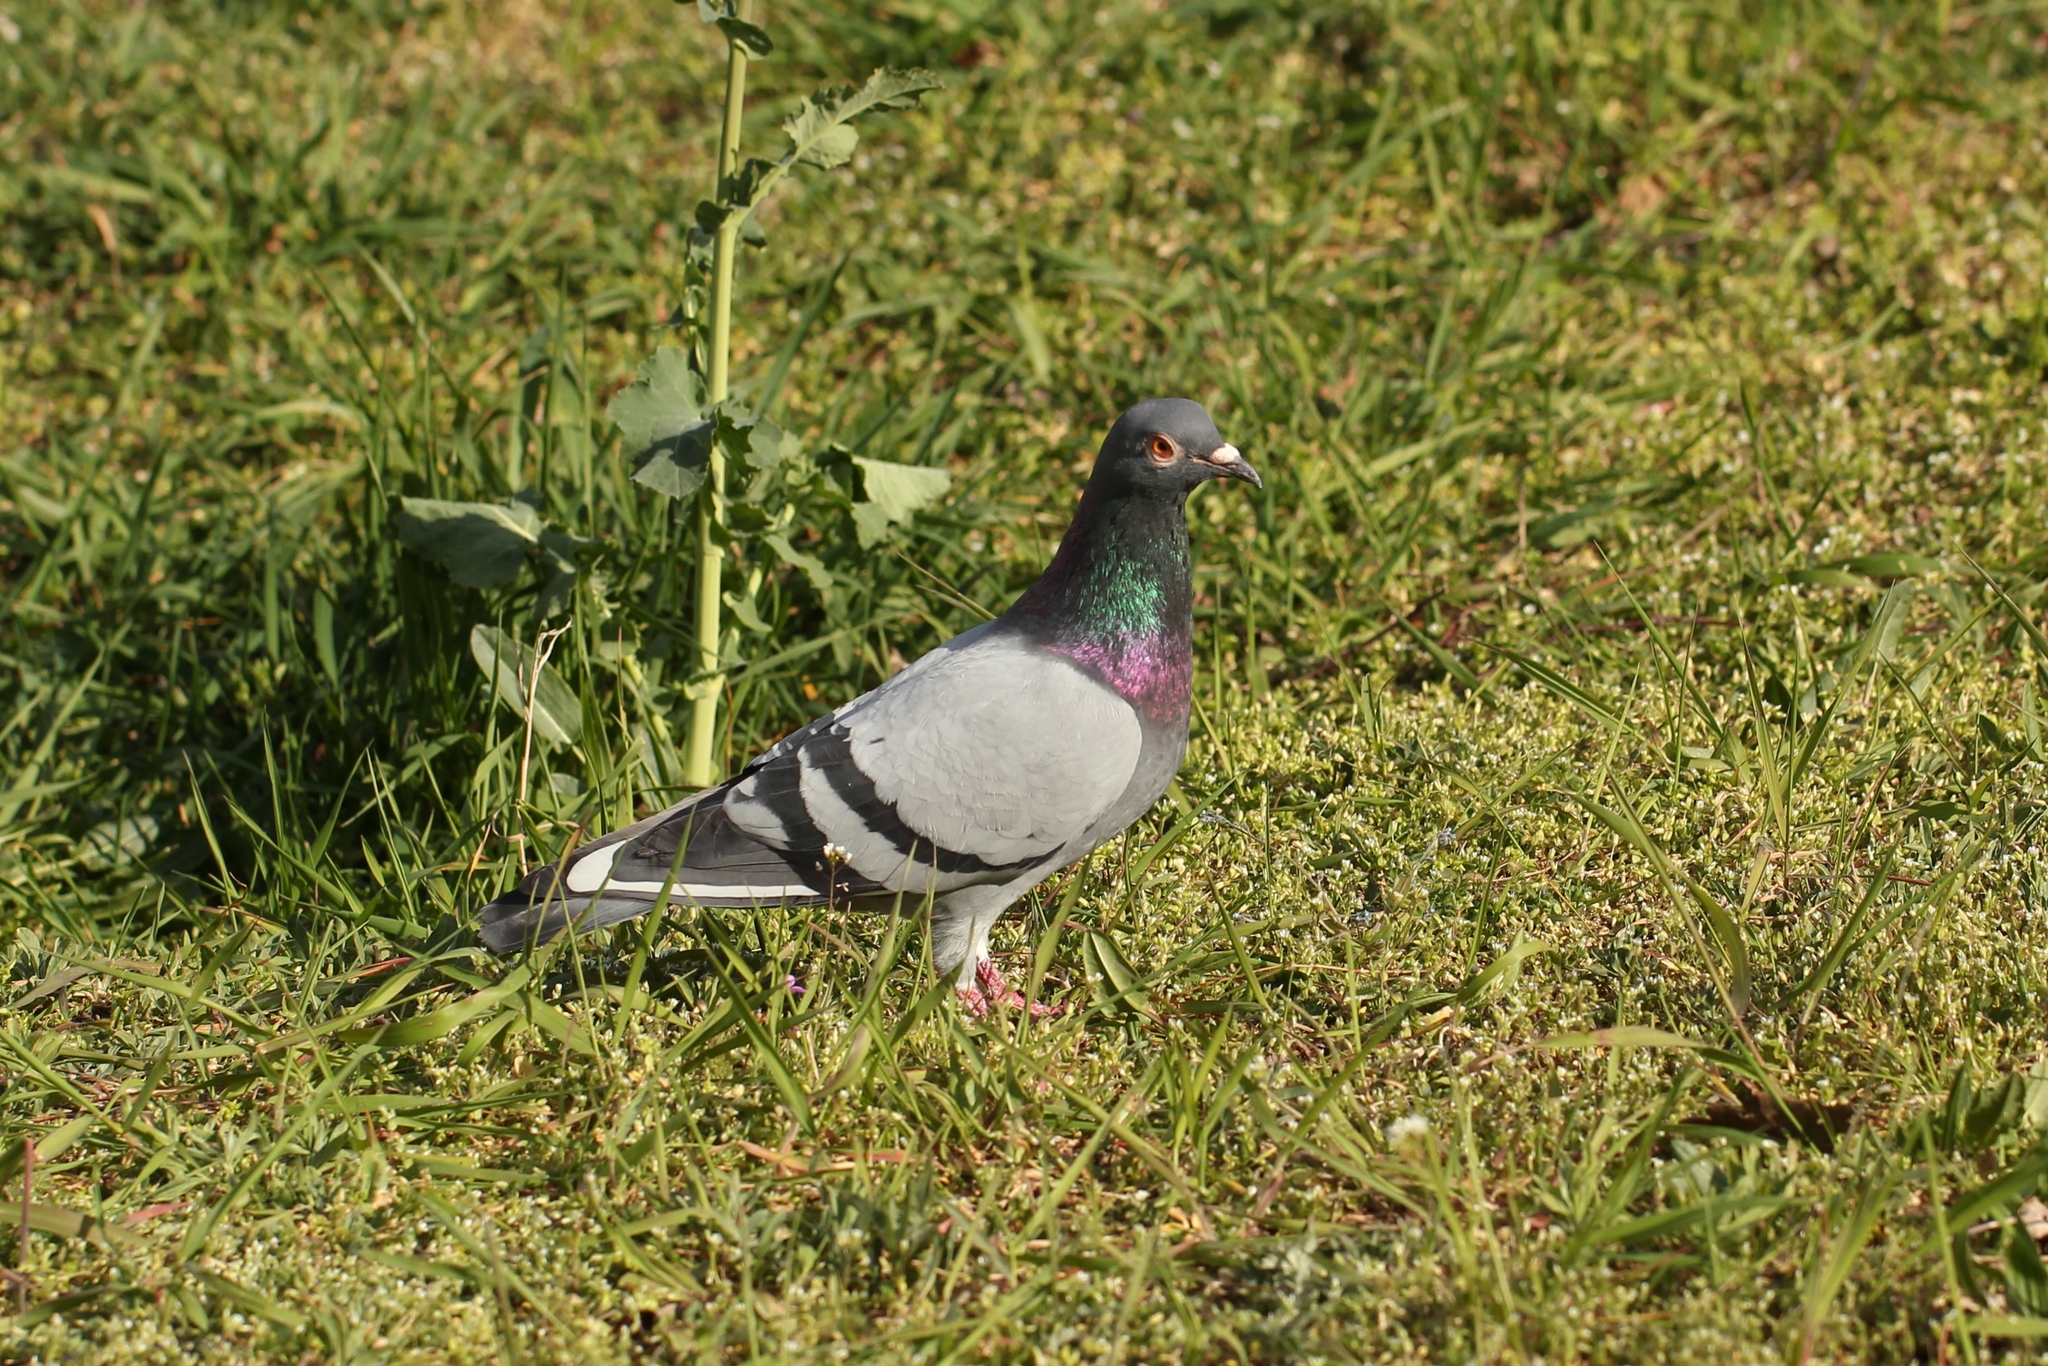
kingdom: Animalia
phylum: Chordata
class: Aves
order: Columbiformes
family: Columbidae
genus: Columba
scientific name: Columba livia
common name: Rock pigeon
